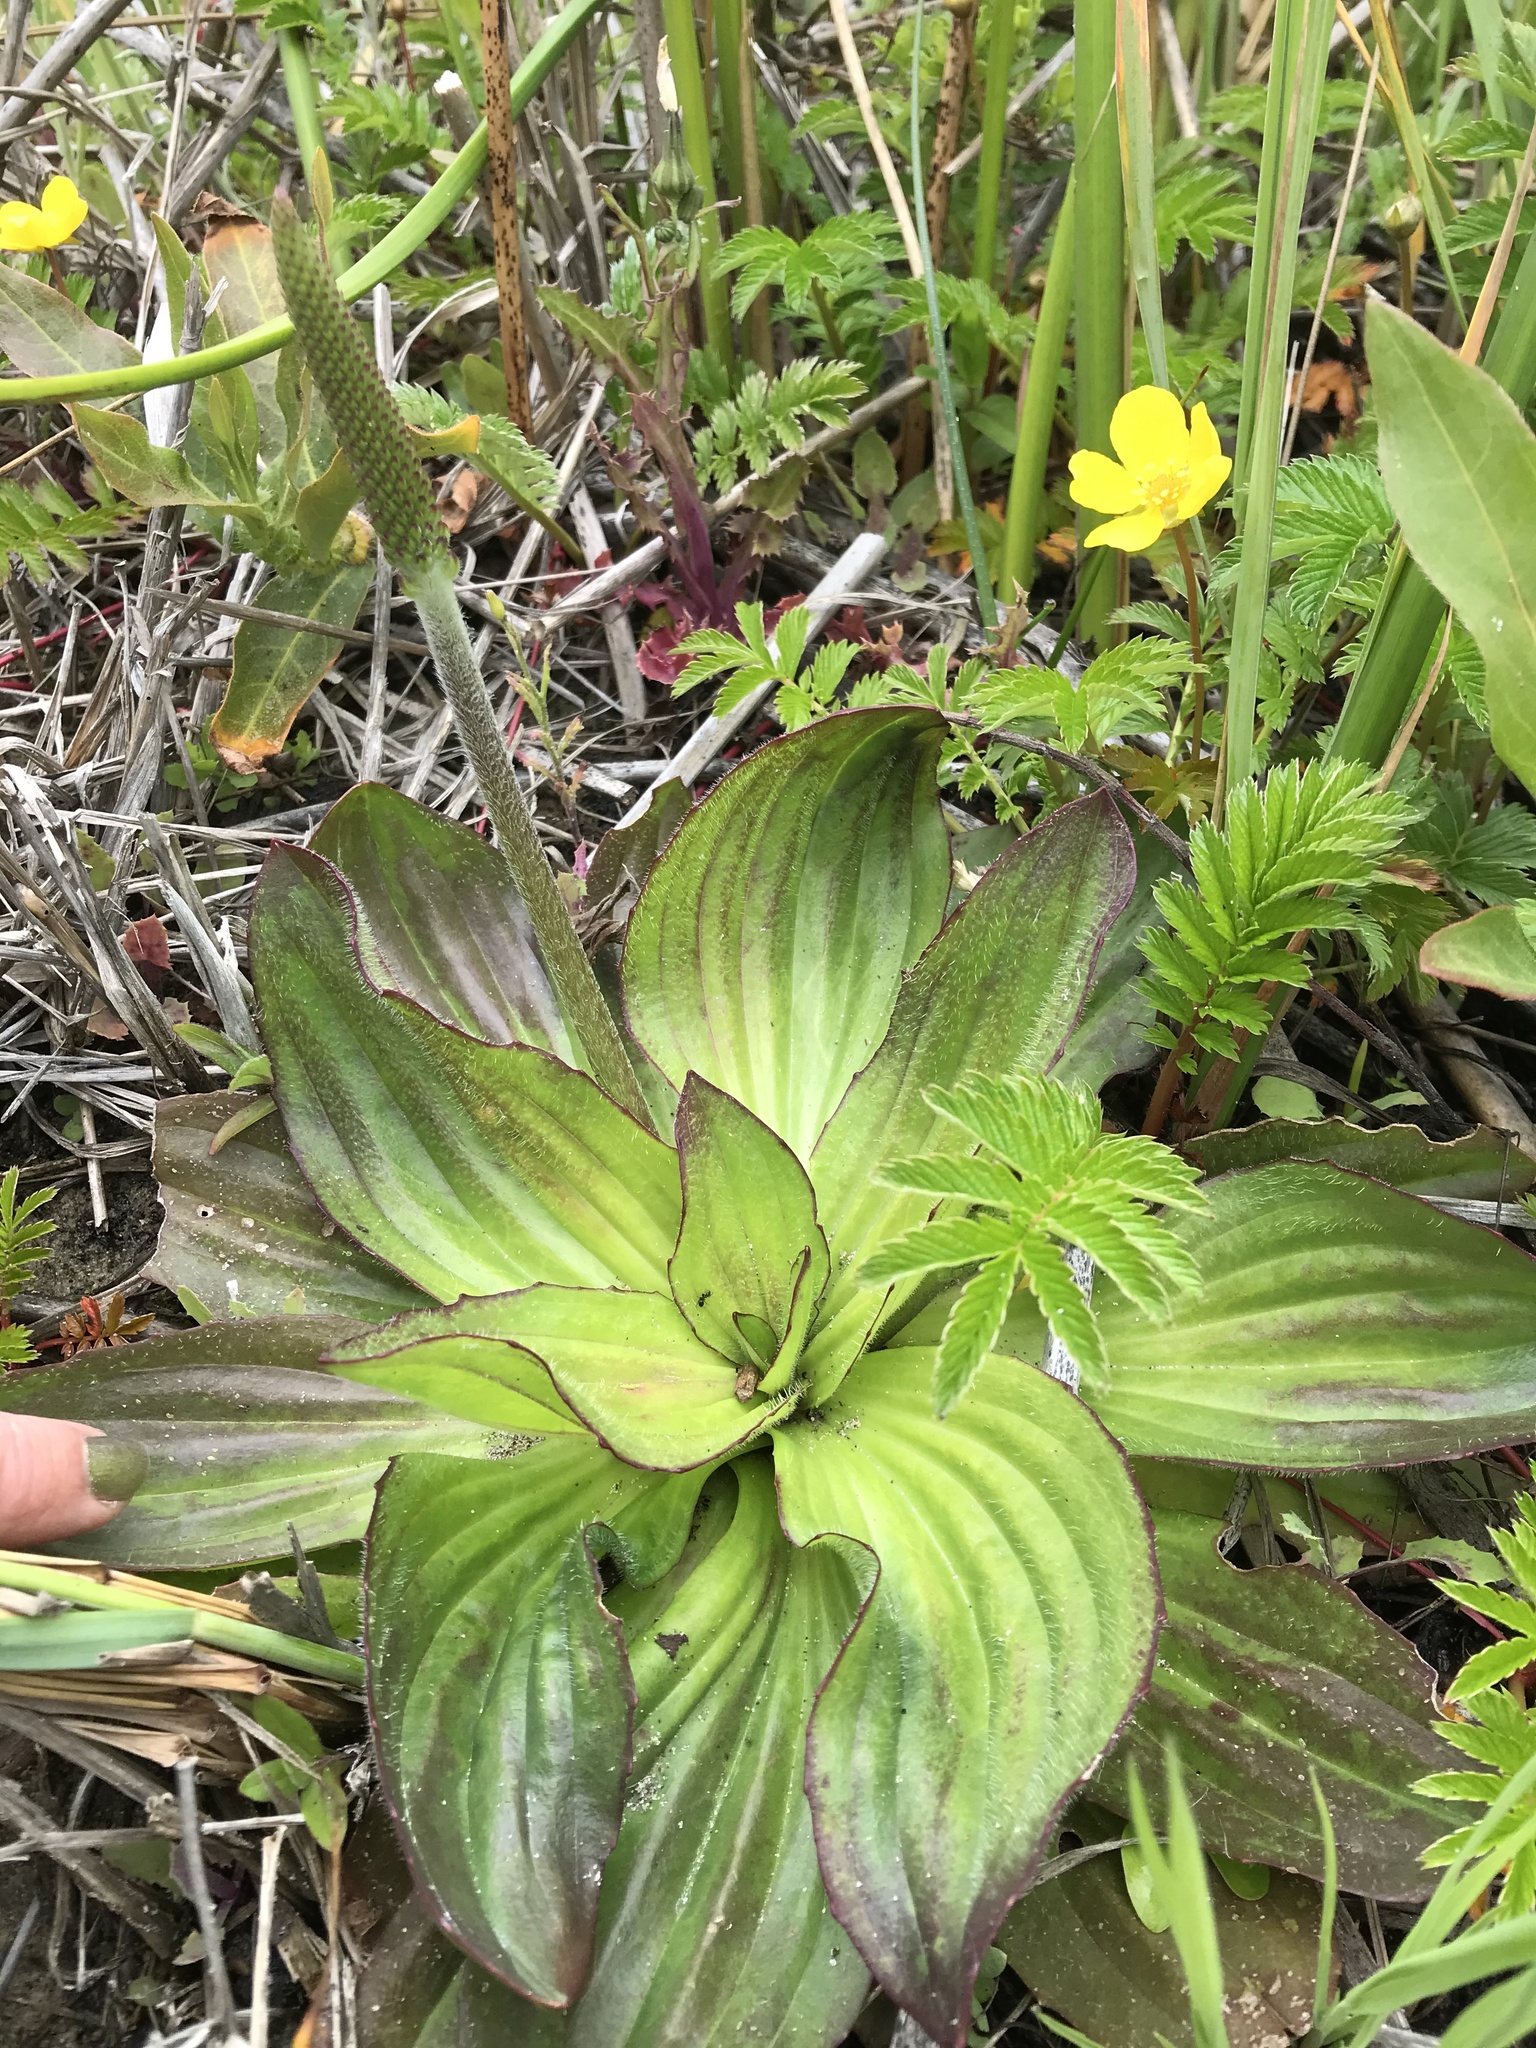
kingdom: Plantae
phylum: Tracheophyta
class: Magnoliopsida
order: Lamiales
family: Plantaginaceae
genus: Plantago
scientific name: Plantago subnuda
